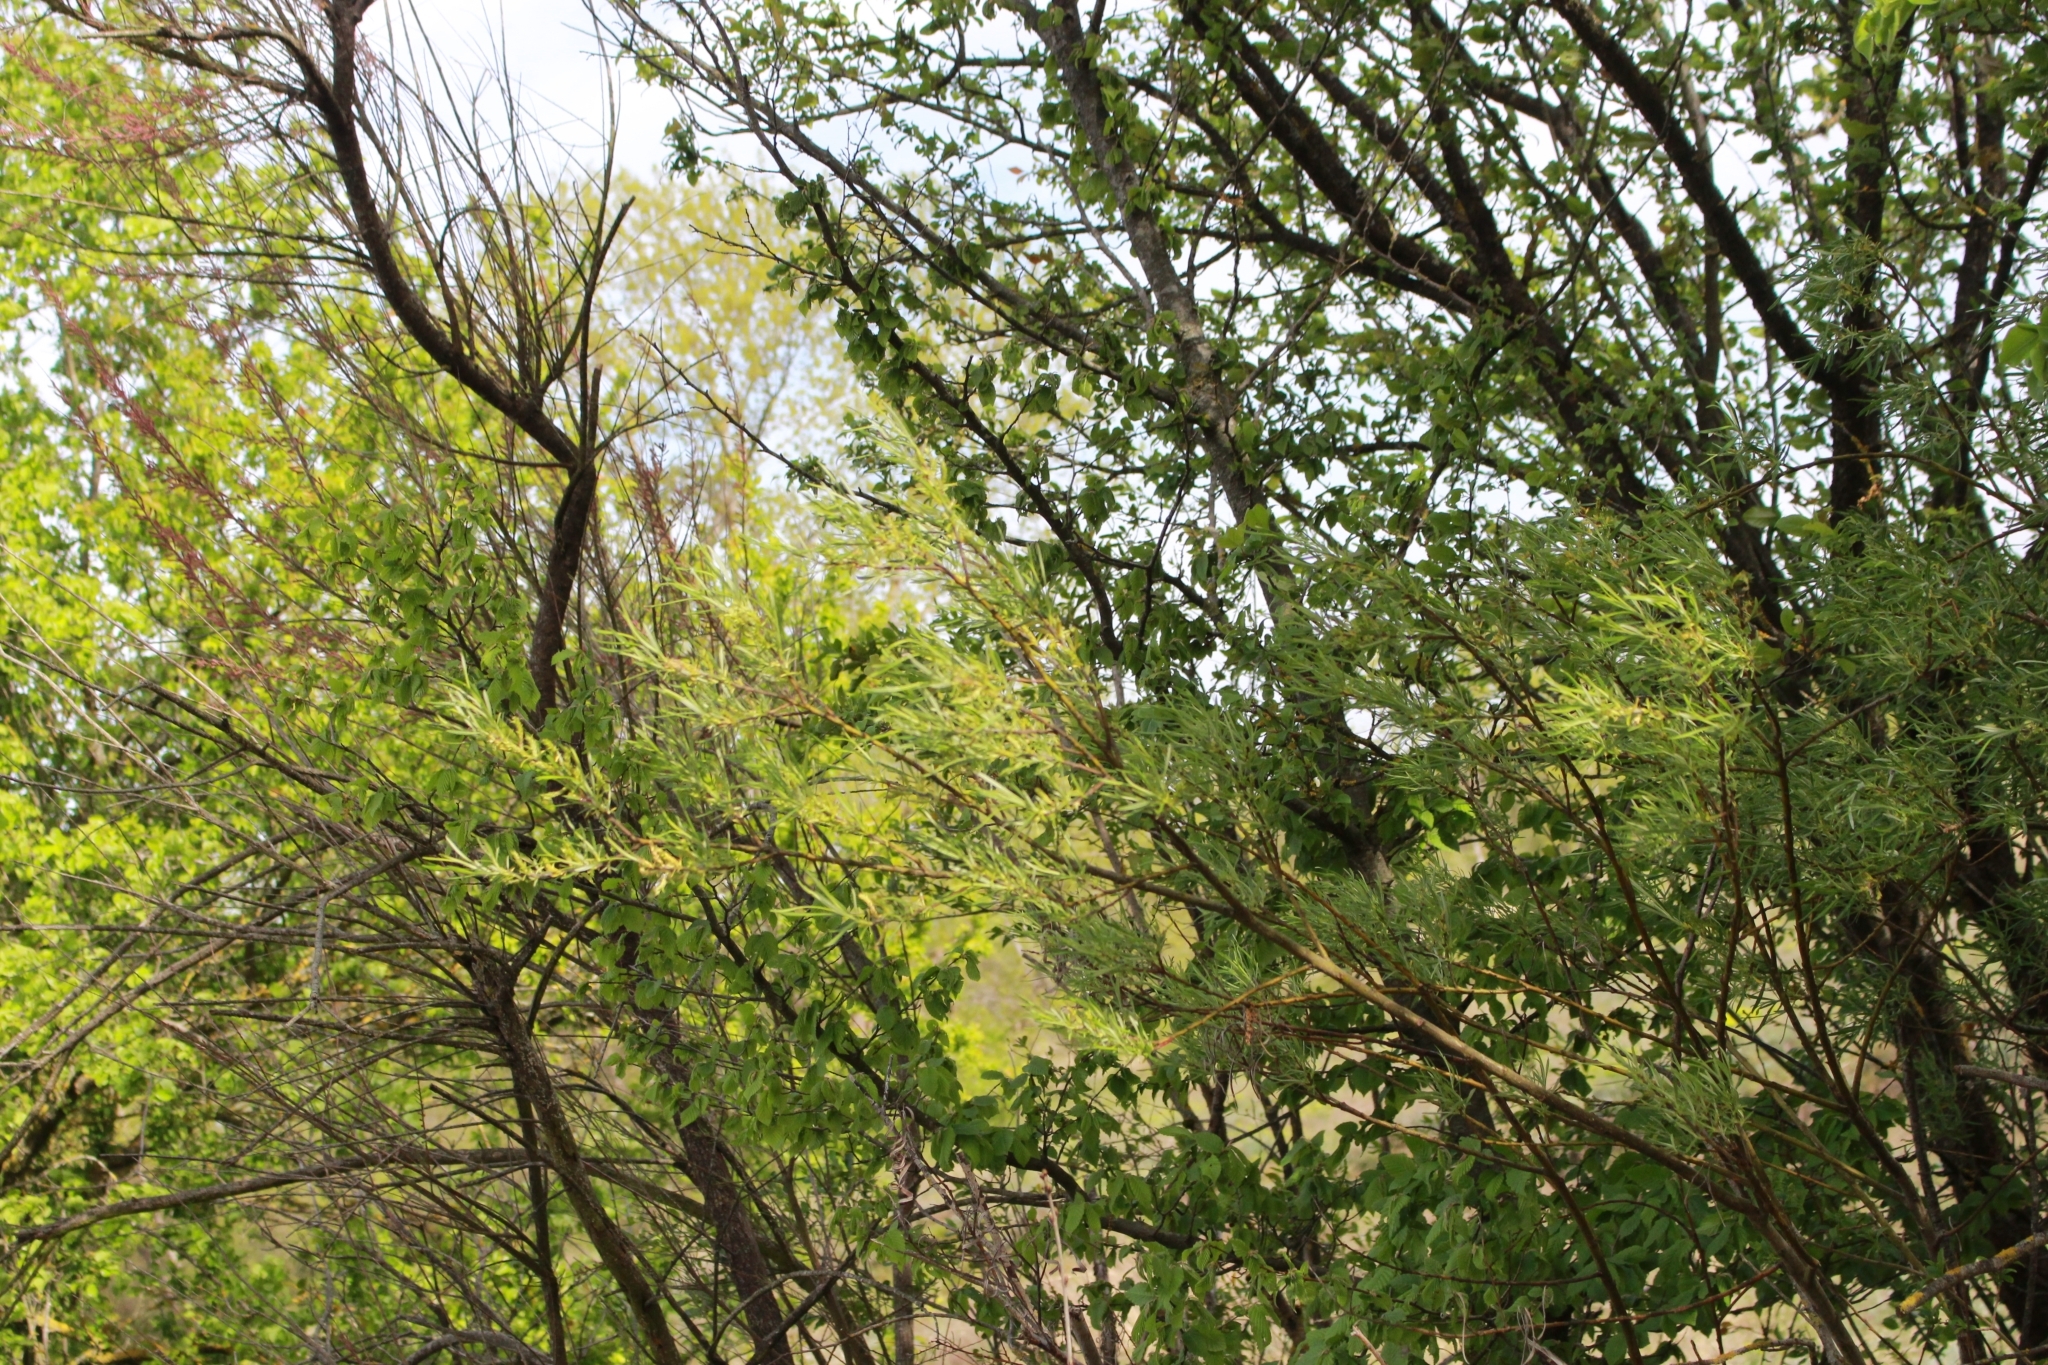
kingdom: Plantae
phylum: Tracheophyta
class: Magnoliopsida
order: Malpighiales
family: Salicaceae
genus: Salix
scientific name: Salix eleagnos
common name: Elaeagnus willow
